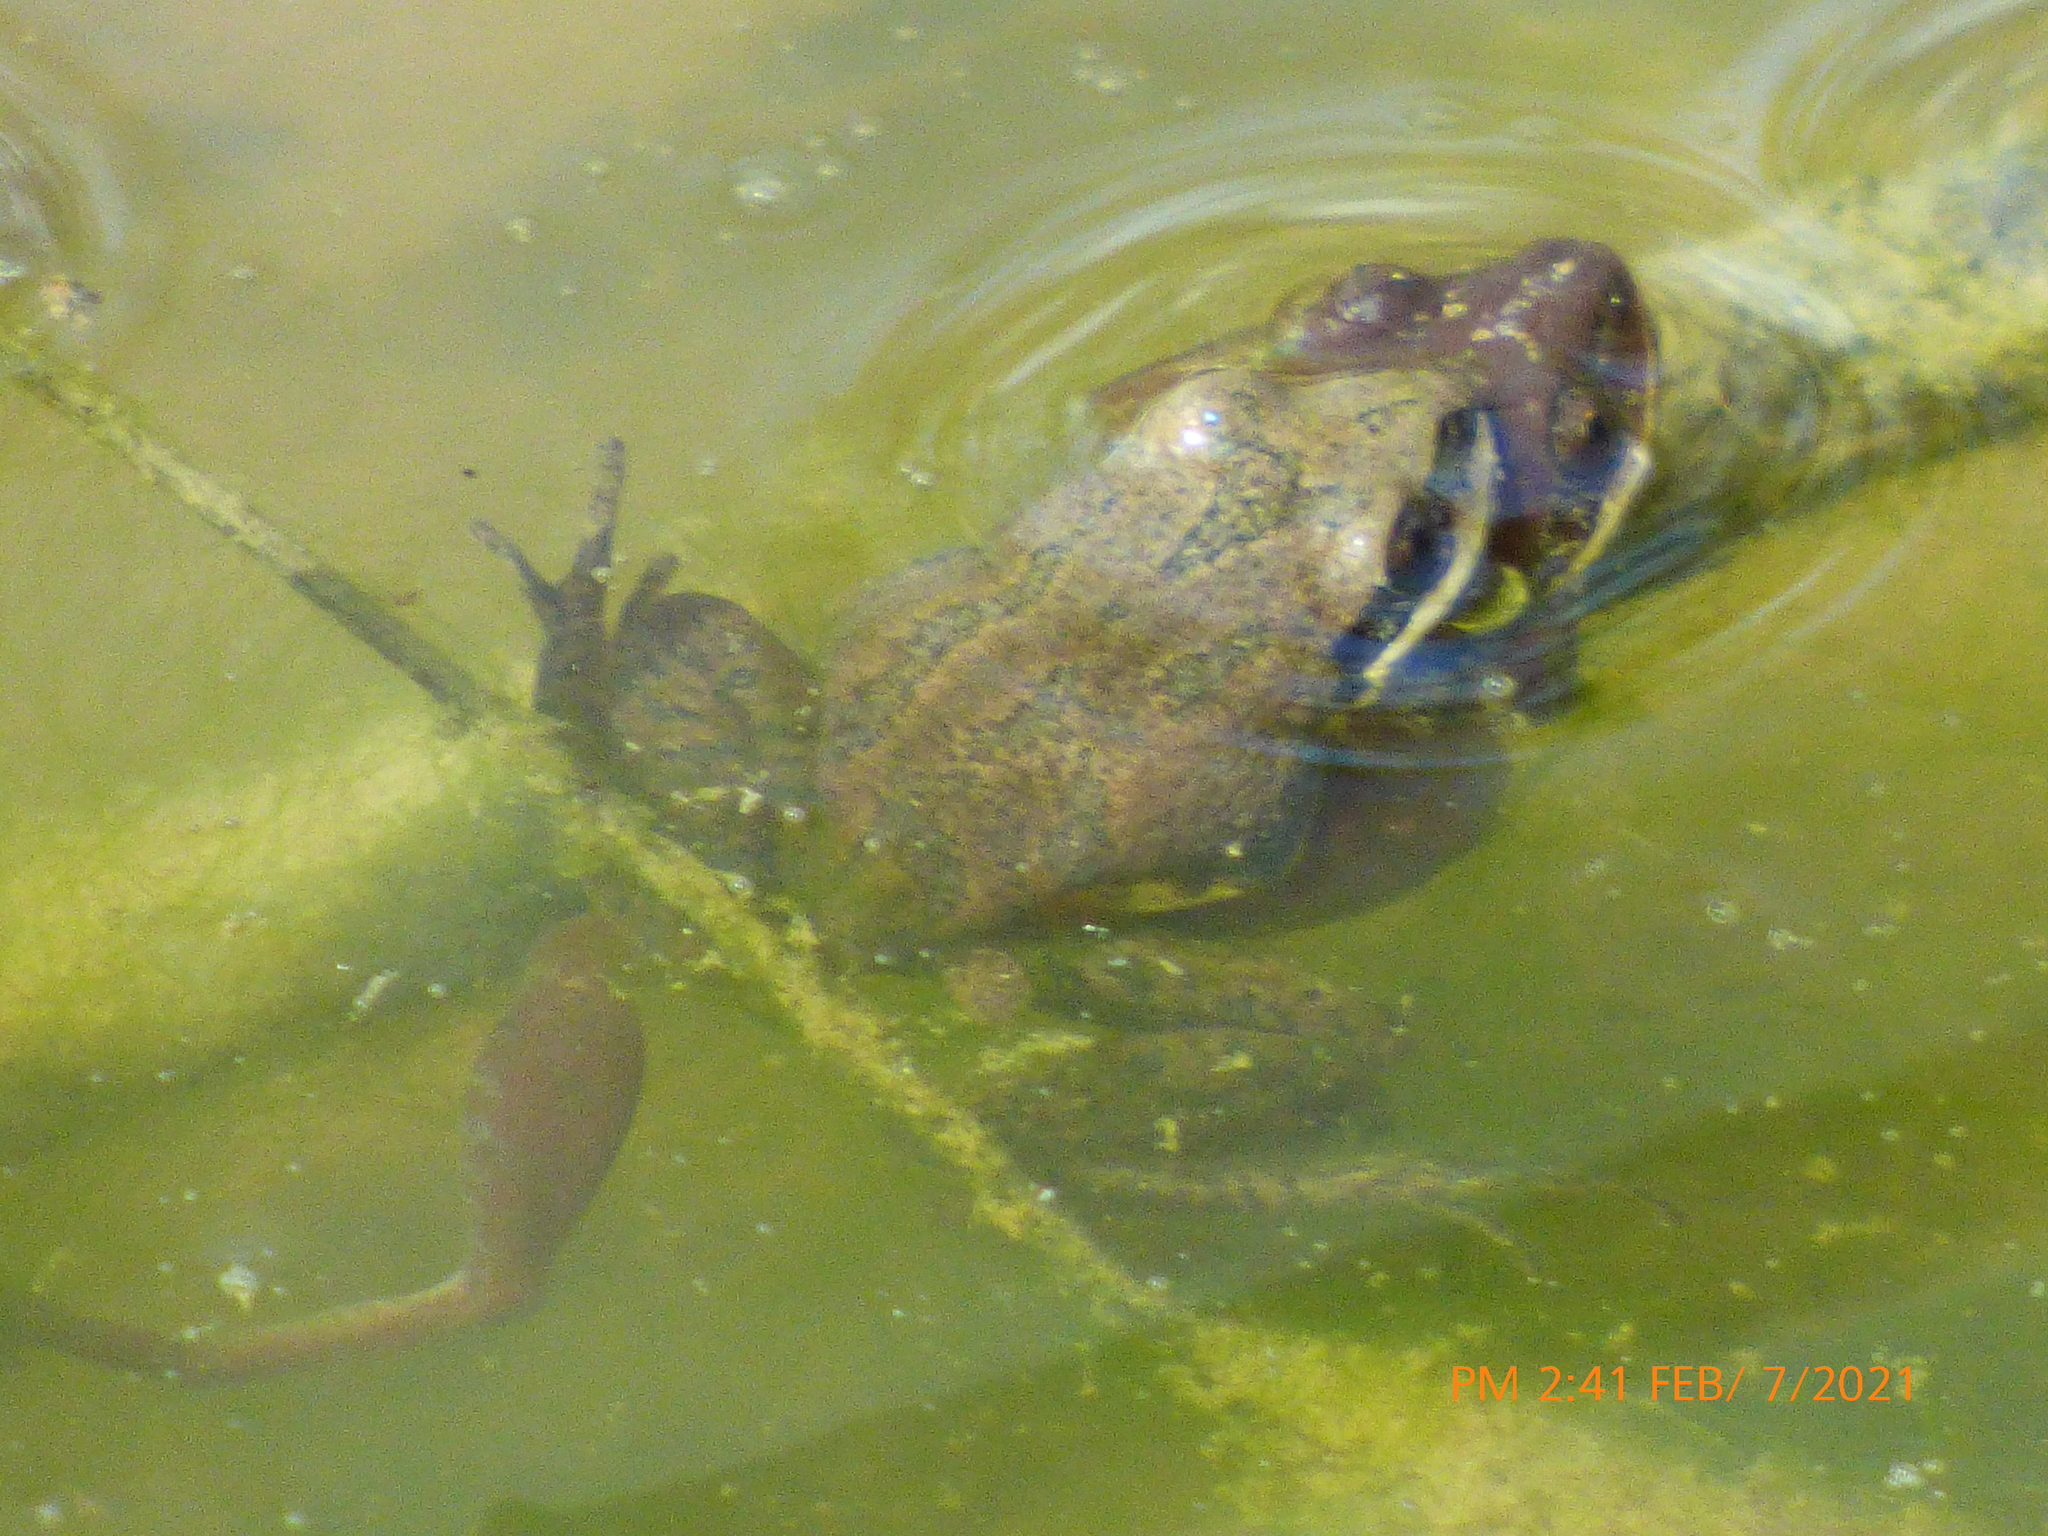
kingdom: Animalia
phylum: Chordata
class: Amphibia
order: Anura
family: Hylidae
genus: Pseudacris
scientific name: Pseudacris feriarum
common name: Upland chorus frog
